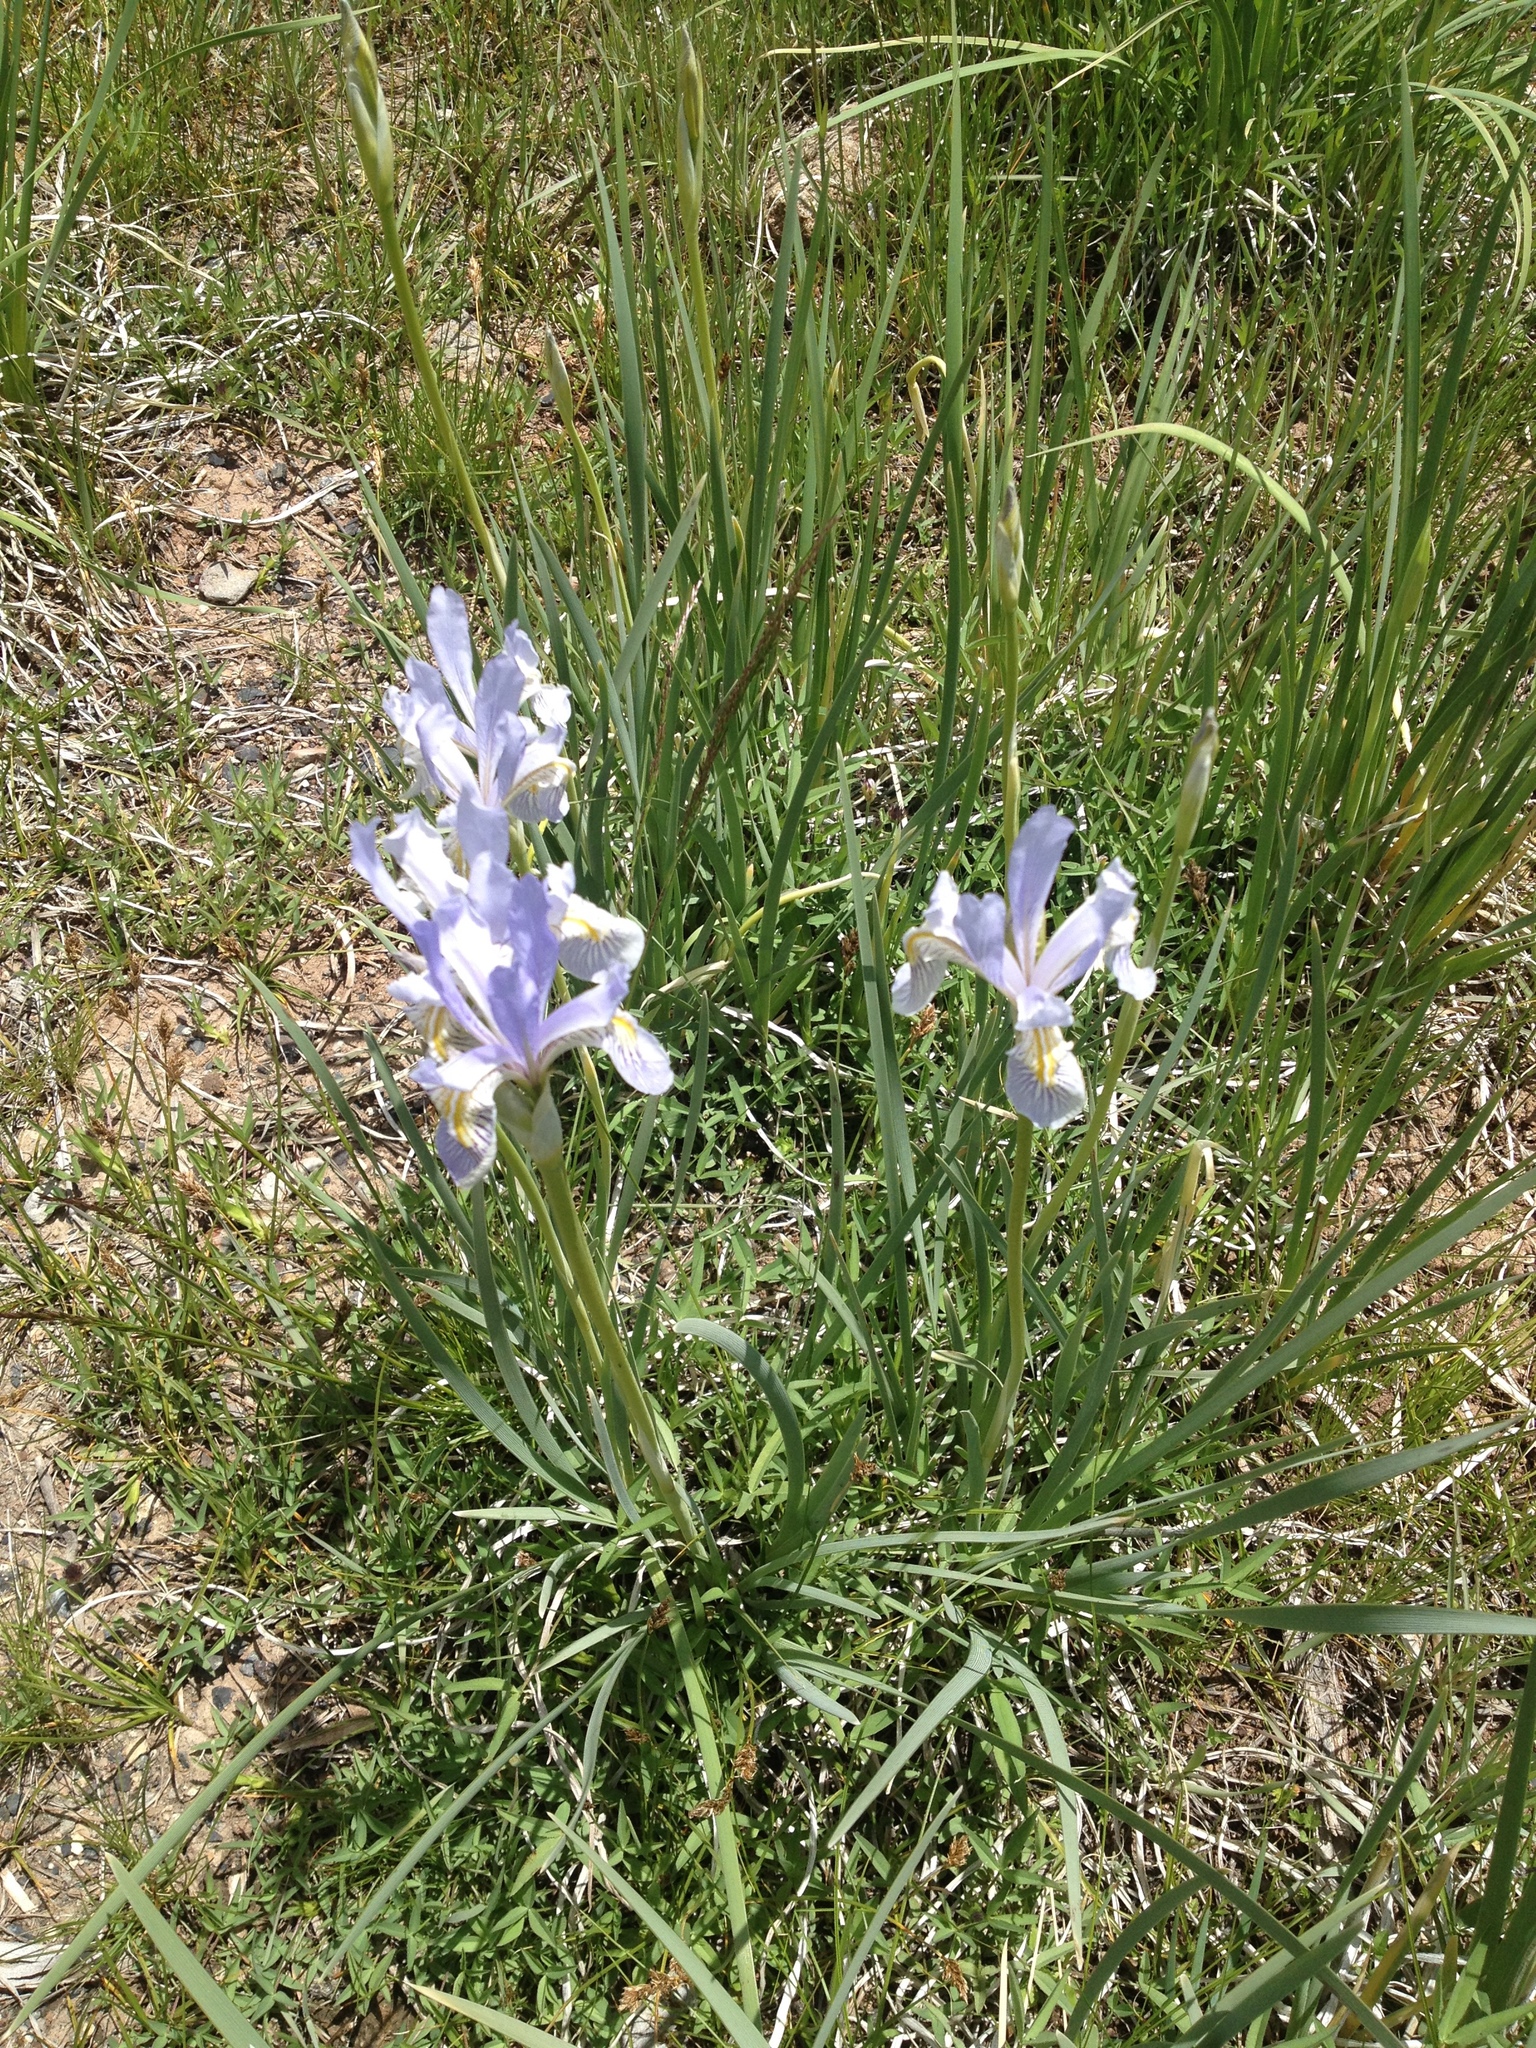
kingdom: Plantae
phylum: Tracheophyta
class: Liliopsida
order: Asparagales
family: Iridaceae
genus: Iris
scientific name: Iris missouriensis
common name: Rocky mountain iris
